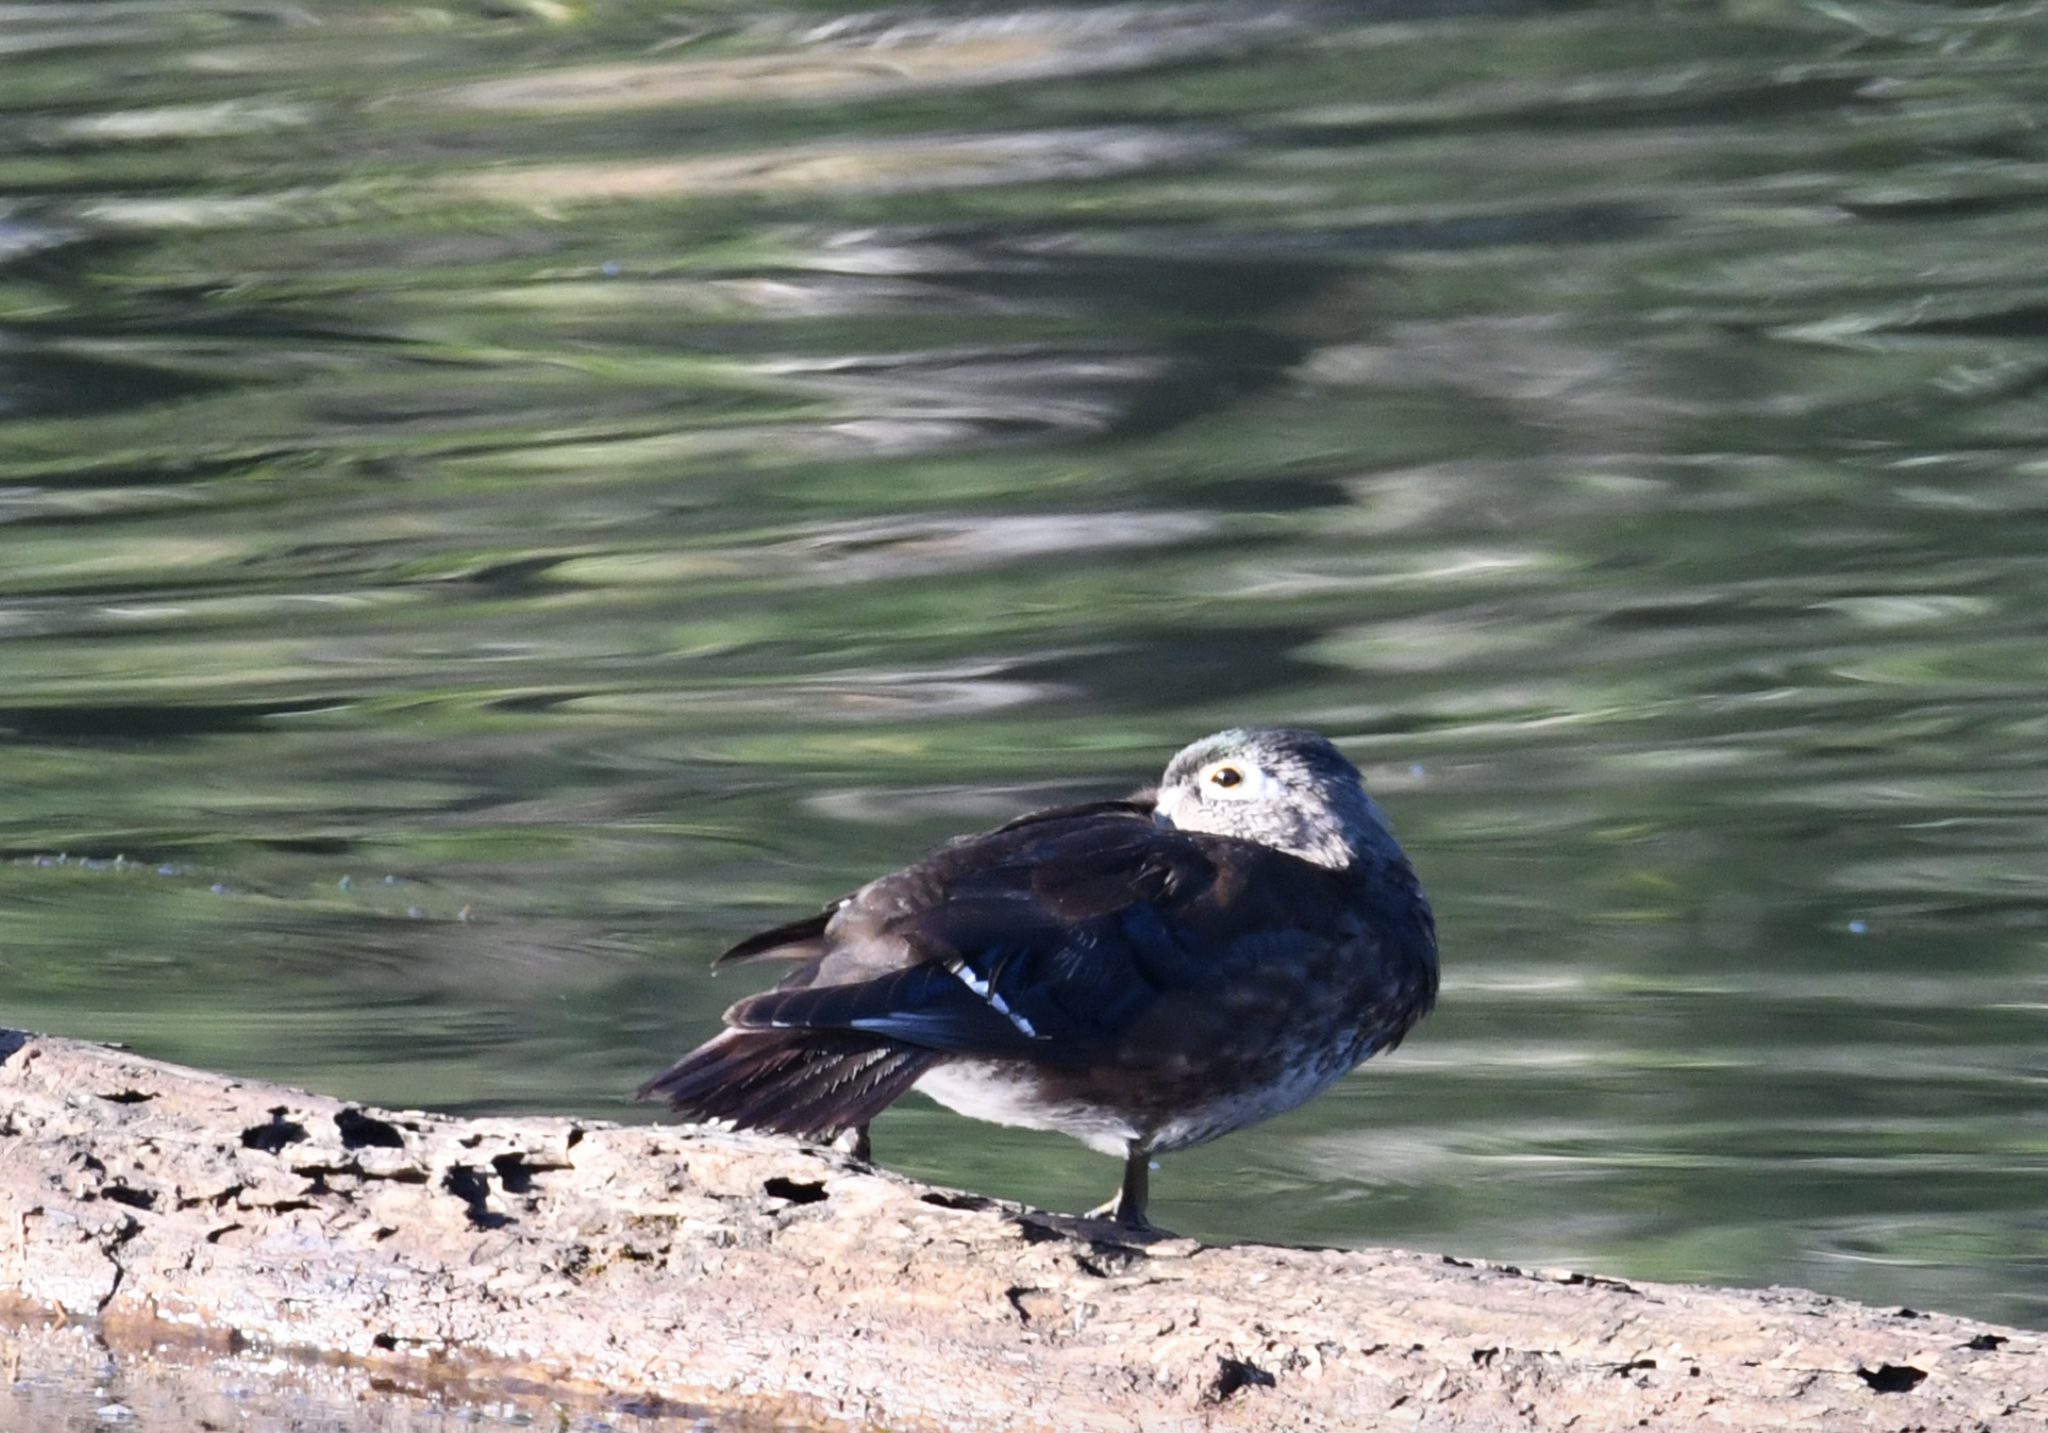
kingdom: Animalia
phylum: Chordata
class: Aves
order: Anseriformes
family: Anatidae
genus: Aix
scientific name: Aix sponsa
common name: Wood duck
